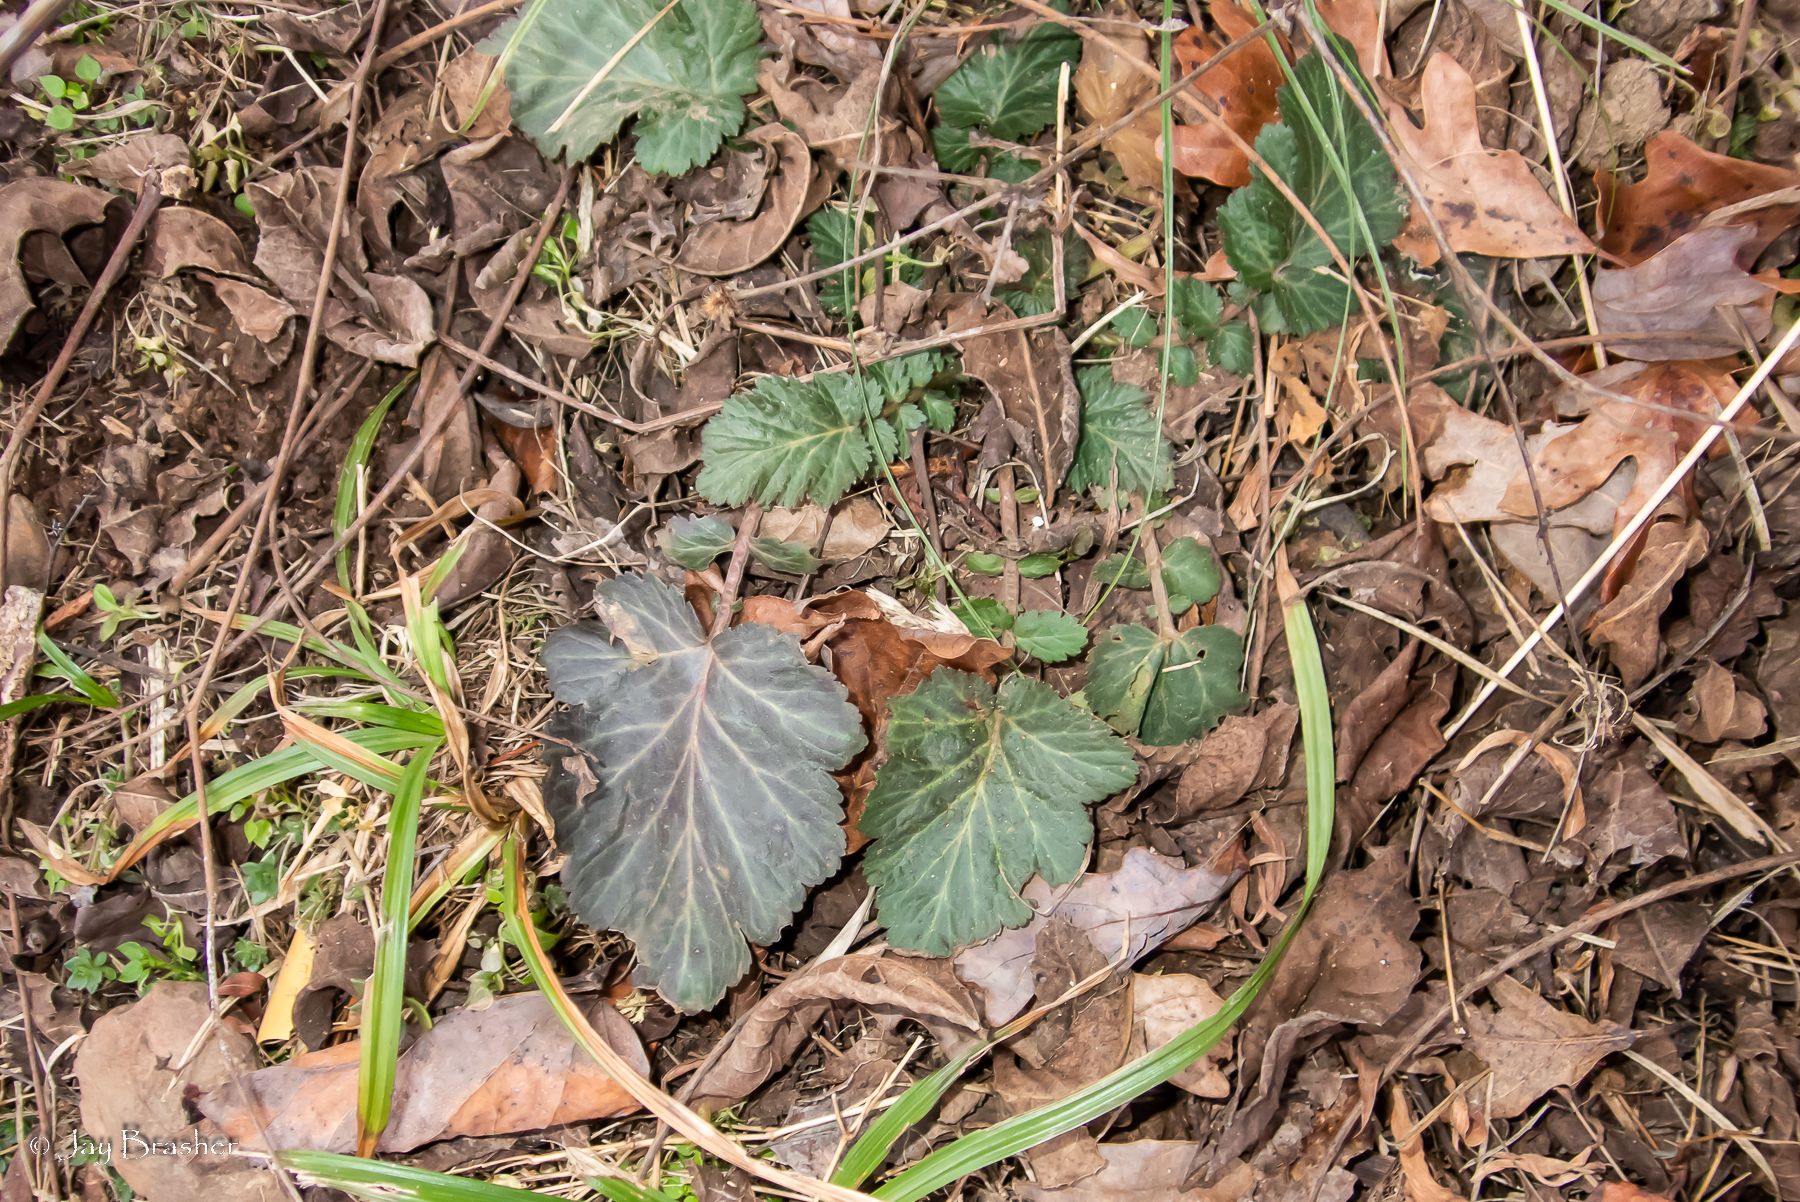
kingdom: Plantae
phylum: Tracheophyta
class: Magnoliopsida
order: Rosales
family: Rosaceae
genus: Geum
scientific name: Geum canadense
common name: White avens
